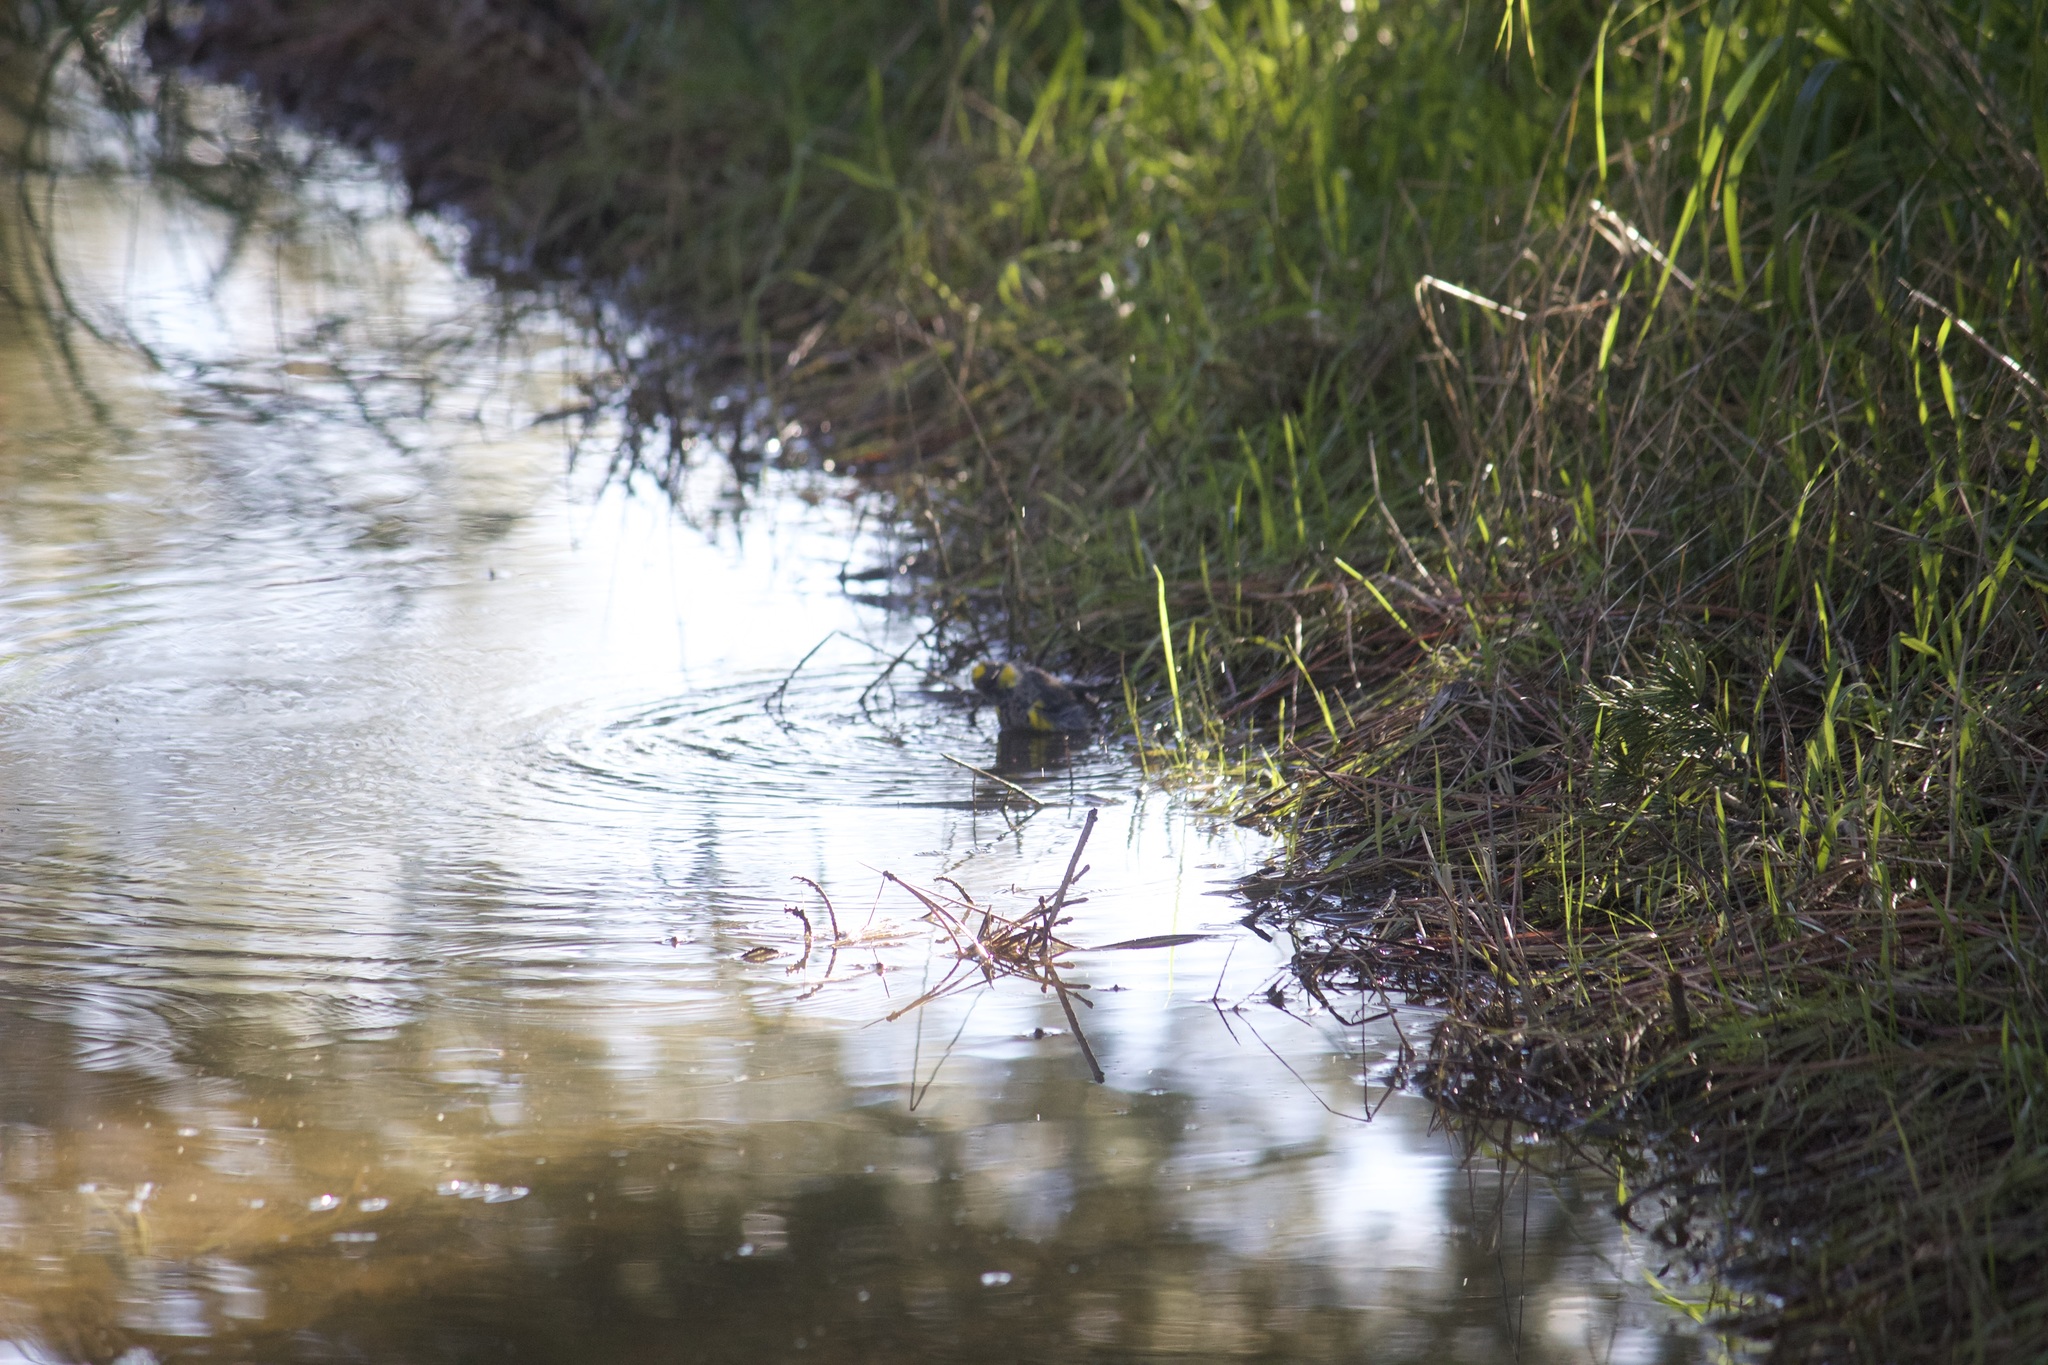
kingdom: Animalia
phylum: Chordata
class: Aves
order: Passeriformes
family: Parulidae
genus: Setophaga
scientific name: Setophaga coronata
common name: Myrtle warbler
